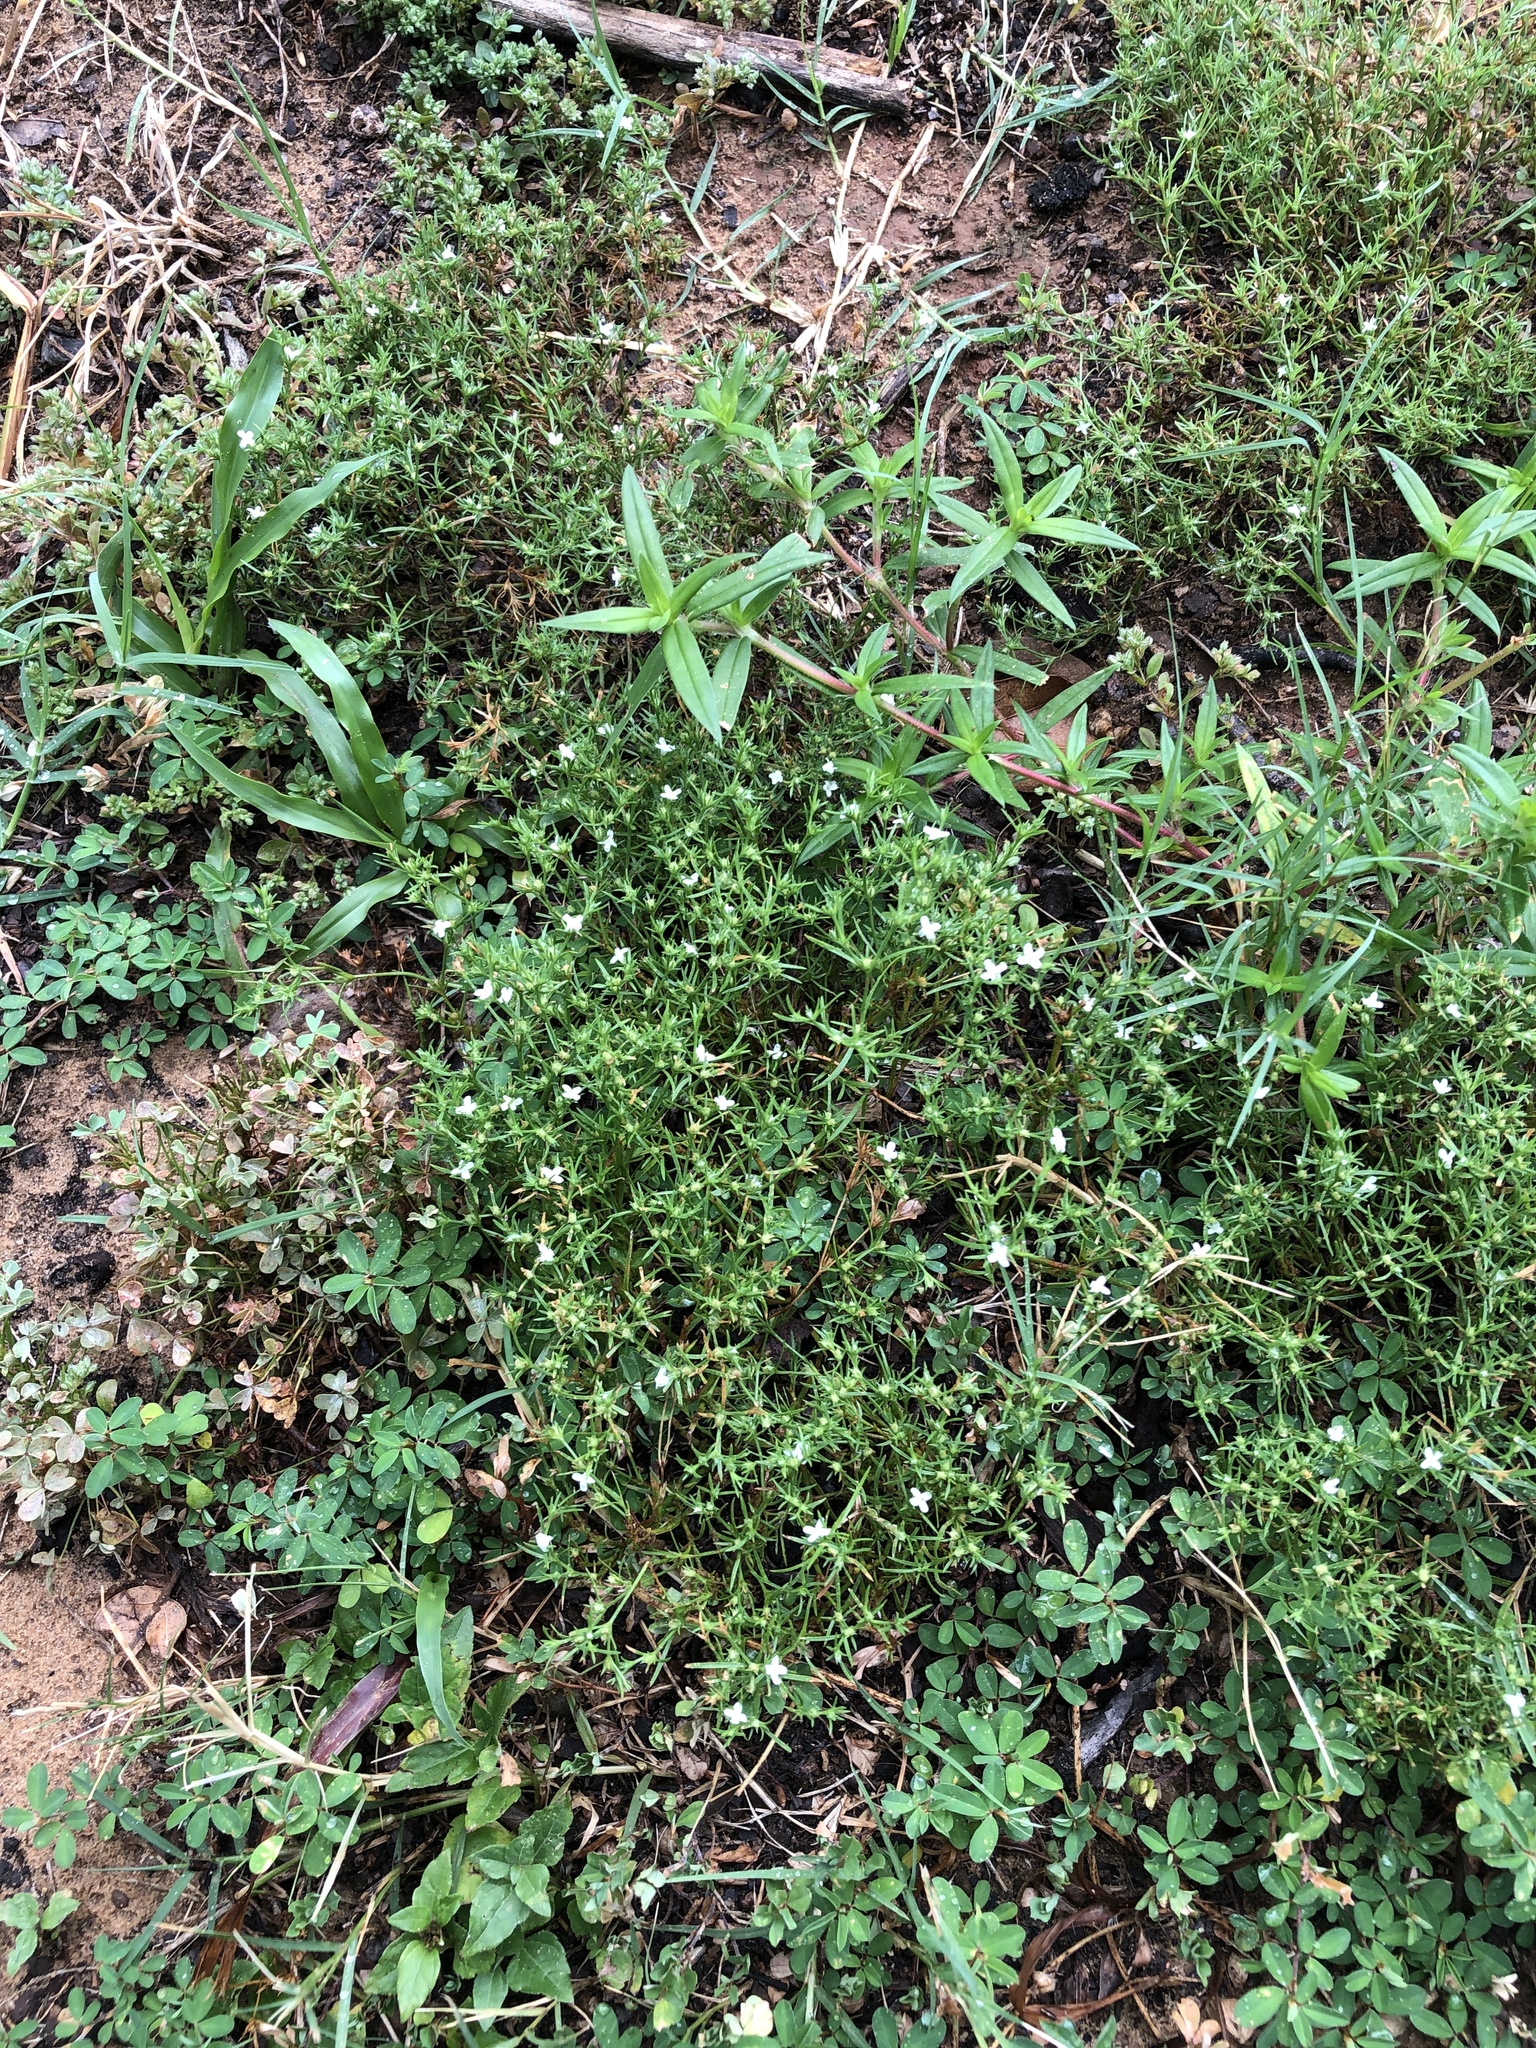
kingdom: Plantae
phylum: Tracheophyta
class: Magnoliopsida
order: Lamiales
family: Tetrachondraceae
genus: Polypremum
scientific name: Polypremum procumbens
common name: Juniper-leaf
